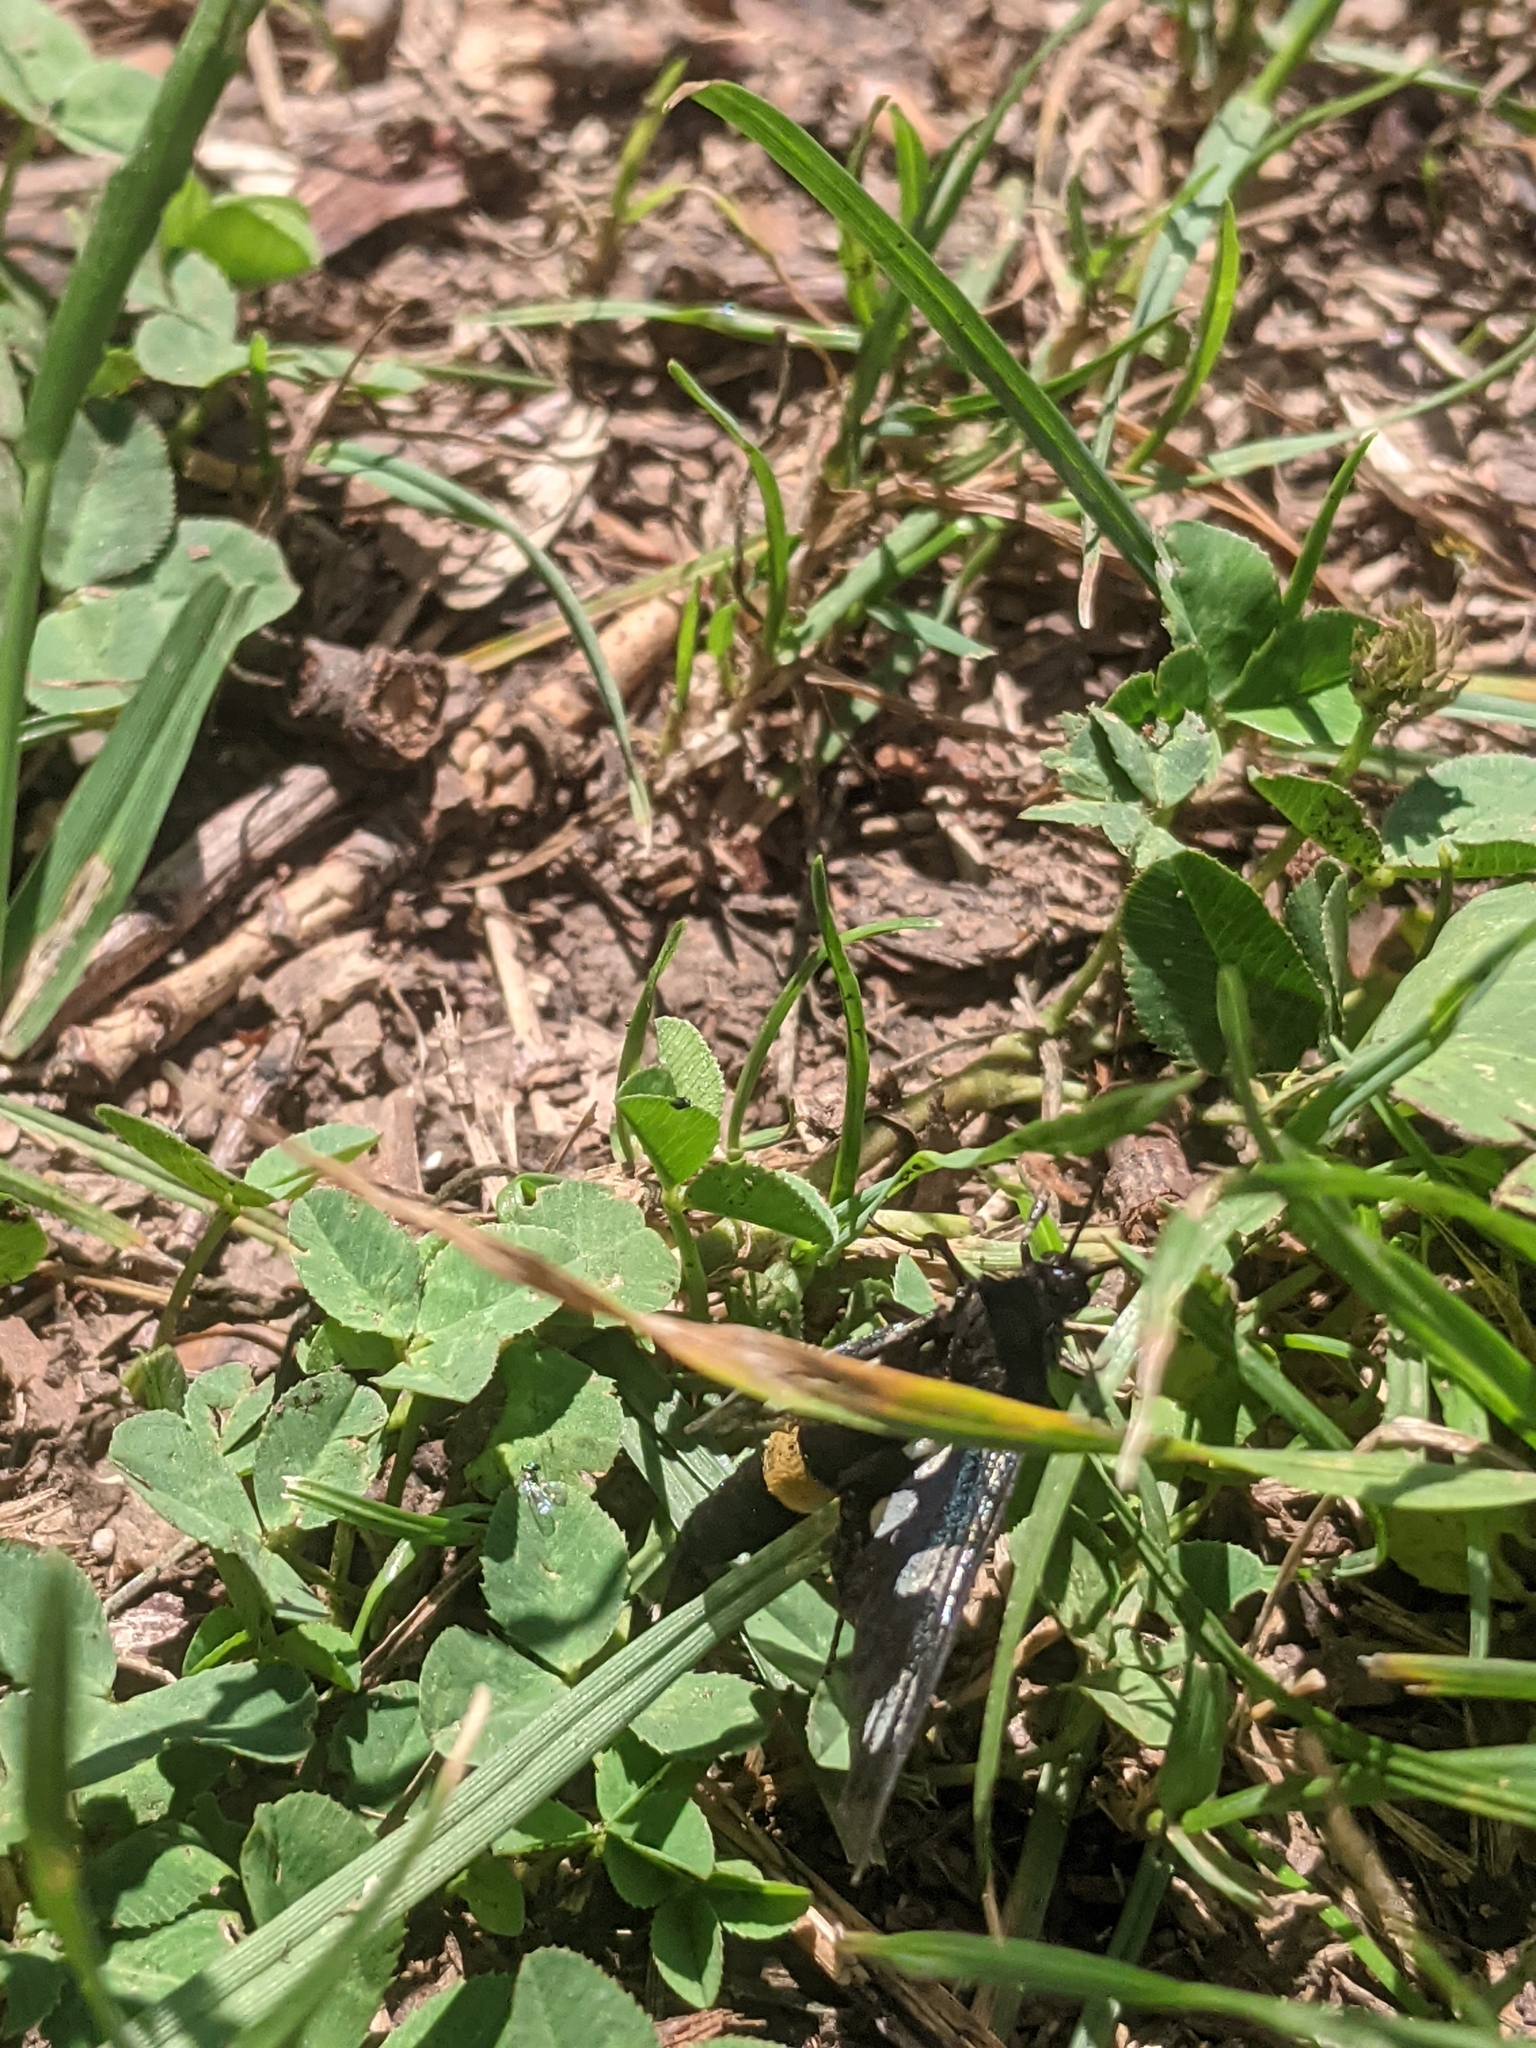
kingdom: Animalia
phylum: Arthropoda
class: Insecta
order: Lepidoptera
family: Erebidae
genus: Amata
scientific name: Amata phegea
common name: Nine-spotted
